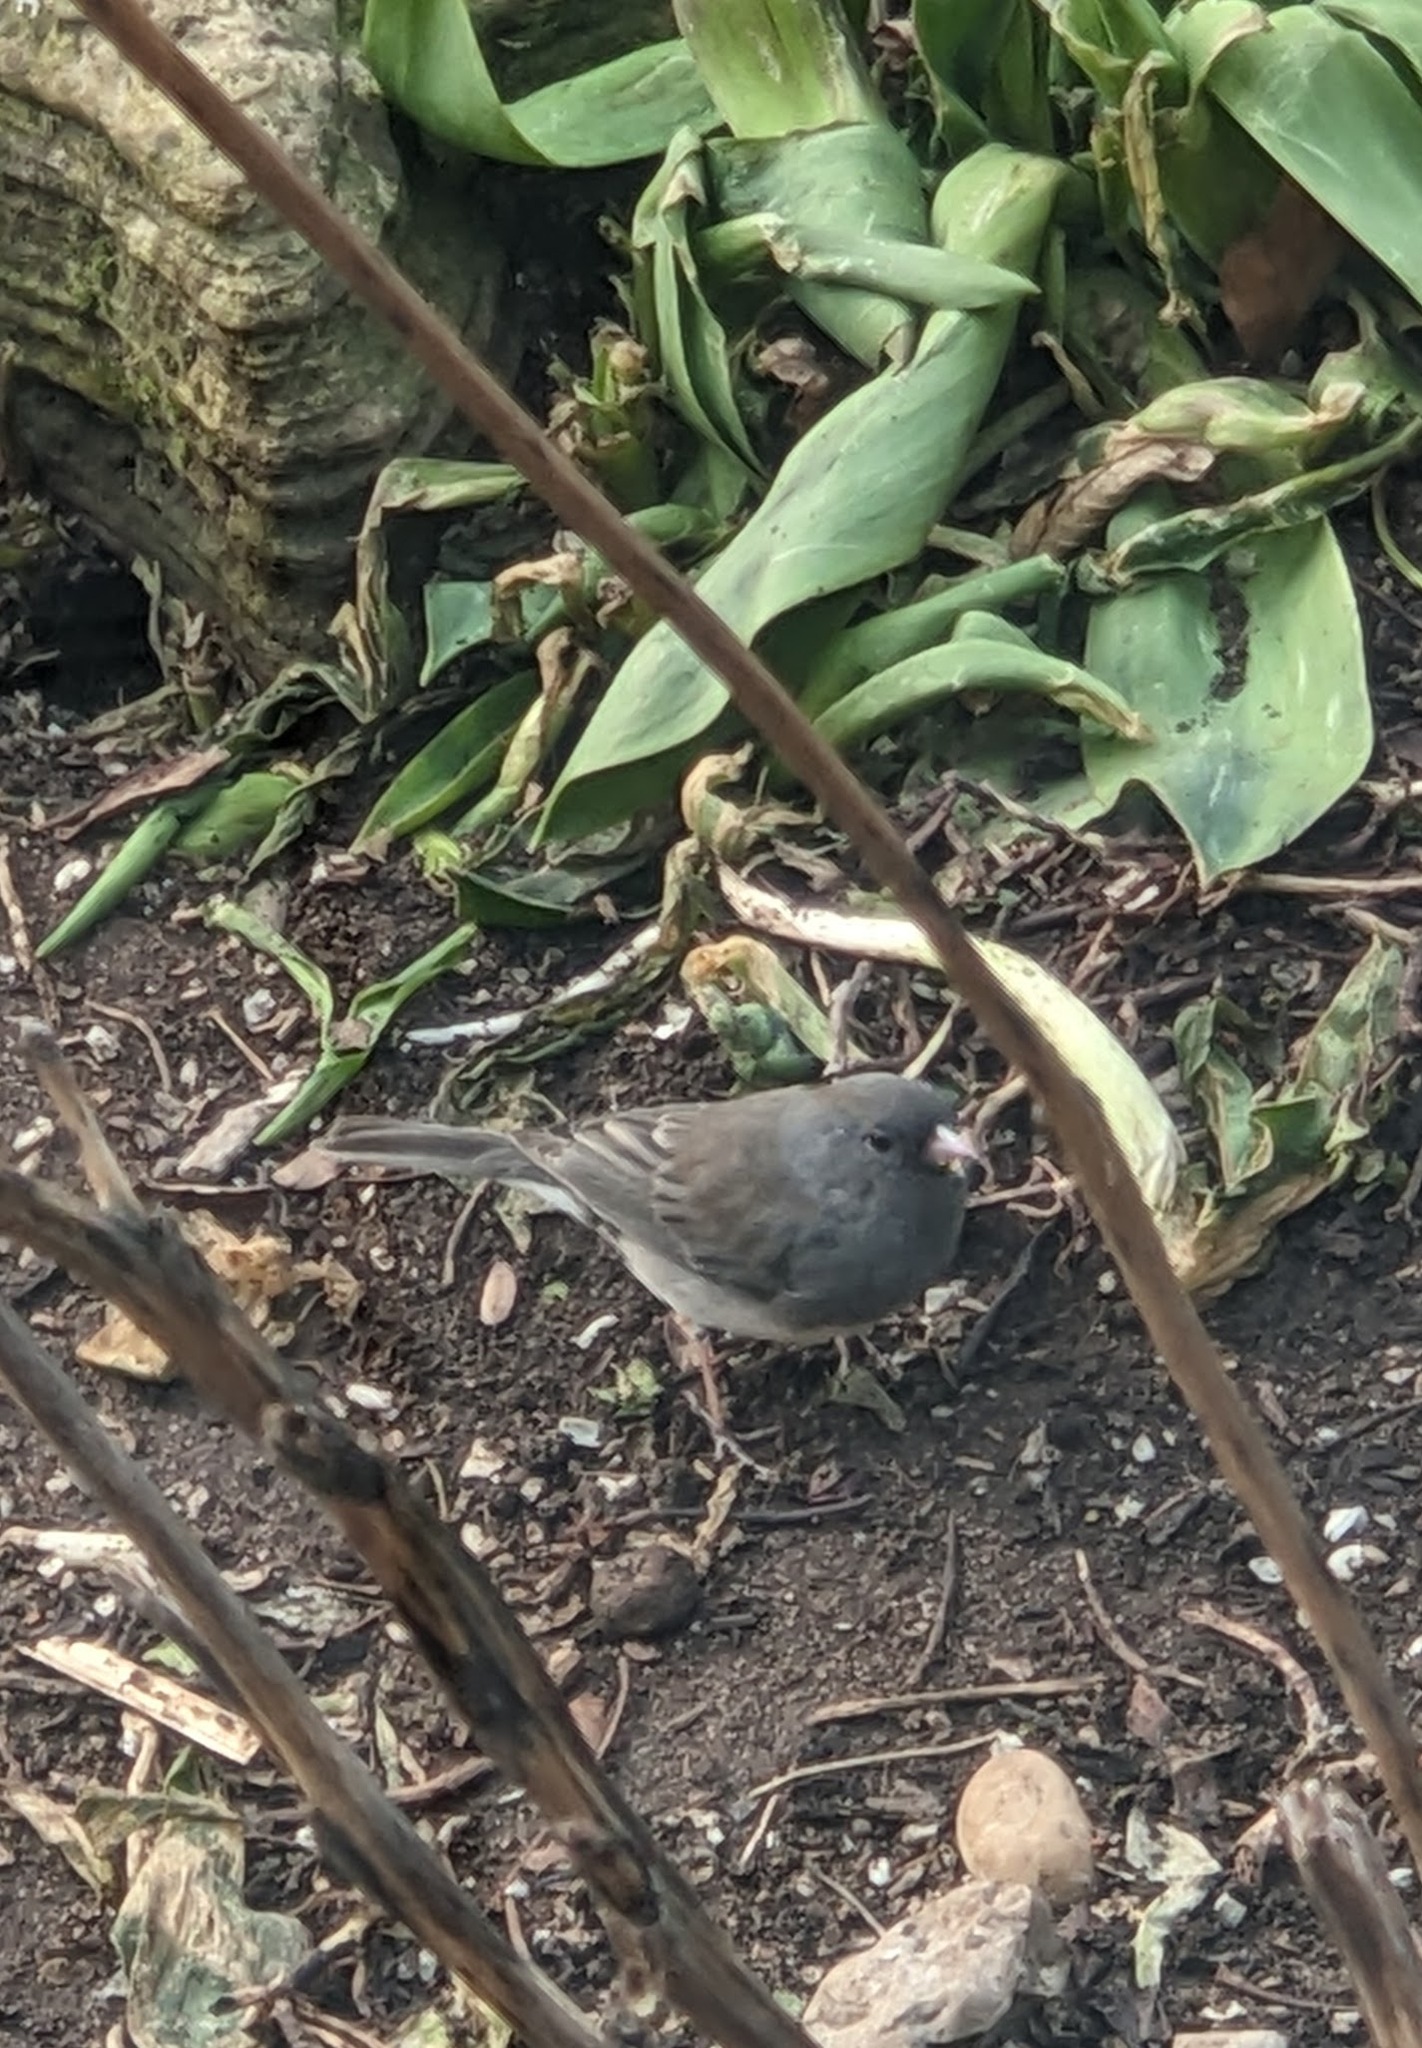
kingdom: Animalia
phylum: Chordata
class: Aves
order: Passeriformes
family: Passerellidae
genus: Junco
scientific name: Junco hyemalis
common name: Dark-eyed junco
